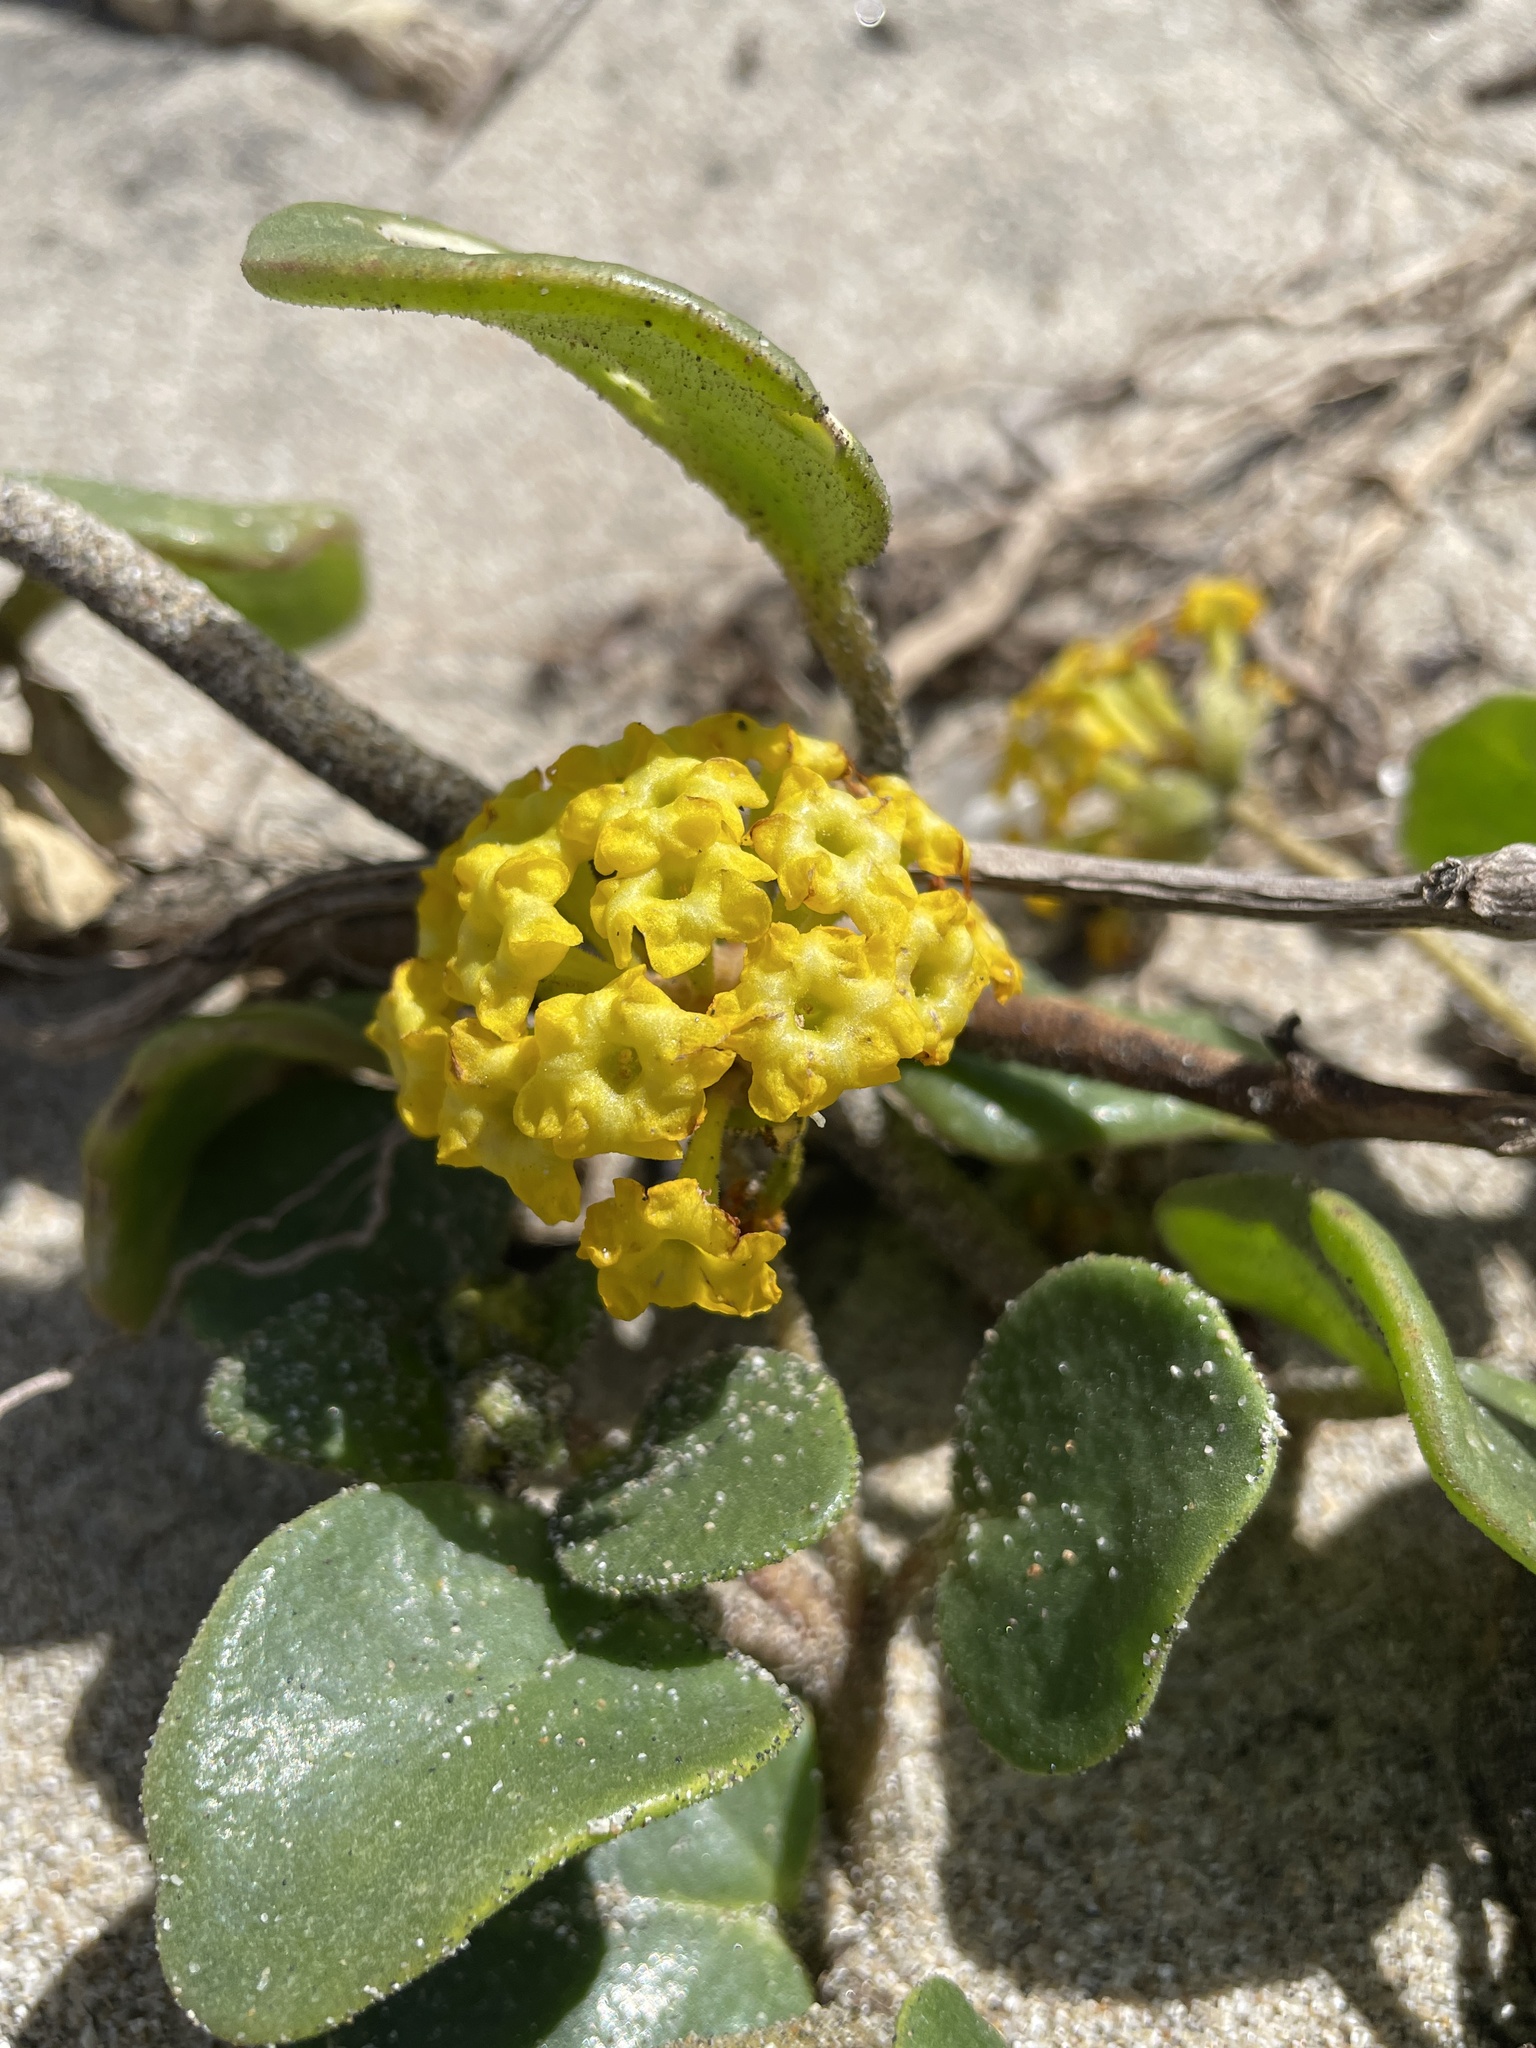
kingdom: Plantae
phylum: Tracheophyta
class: Magnoliopsida
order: Caryophyllales
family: Nyctaginaceae
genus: Abronia
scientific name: Abronia latifolia
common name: Yellow sand-verbena
